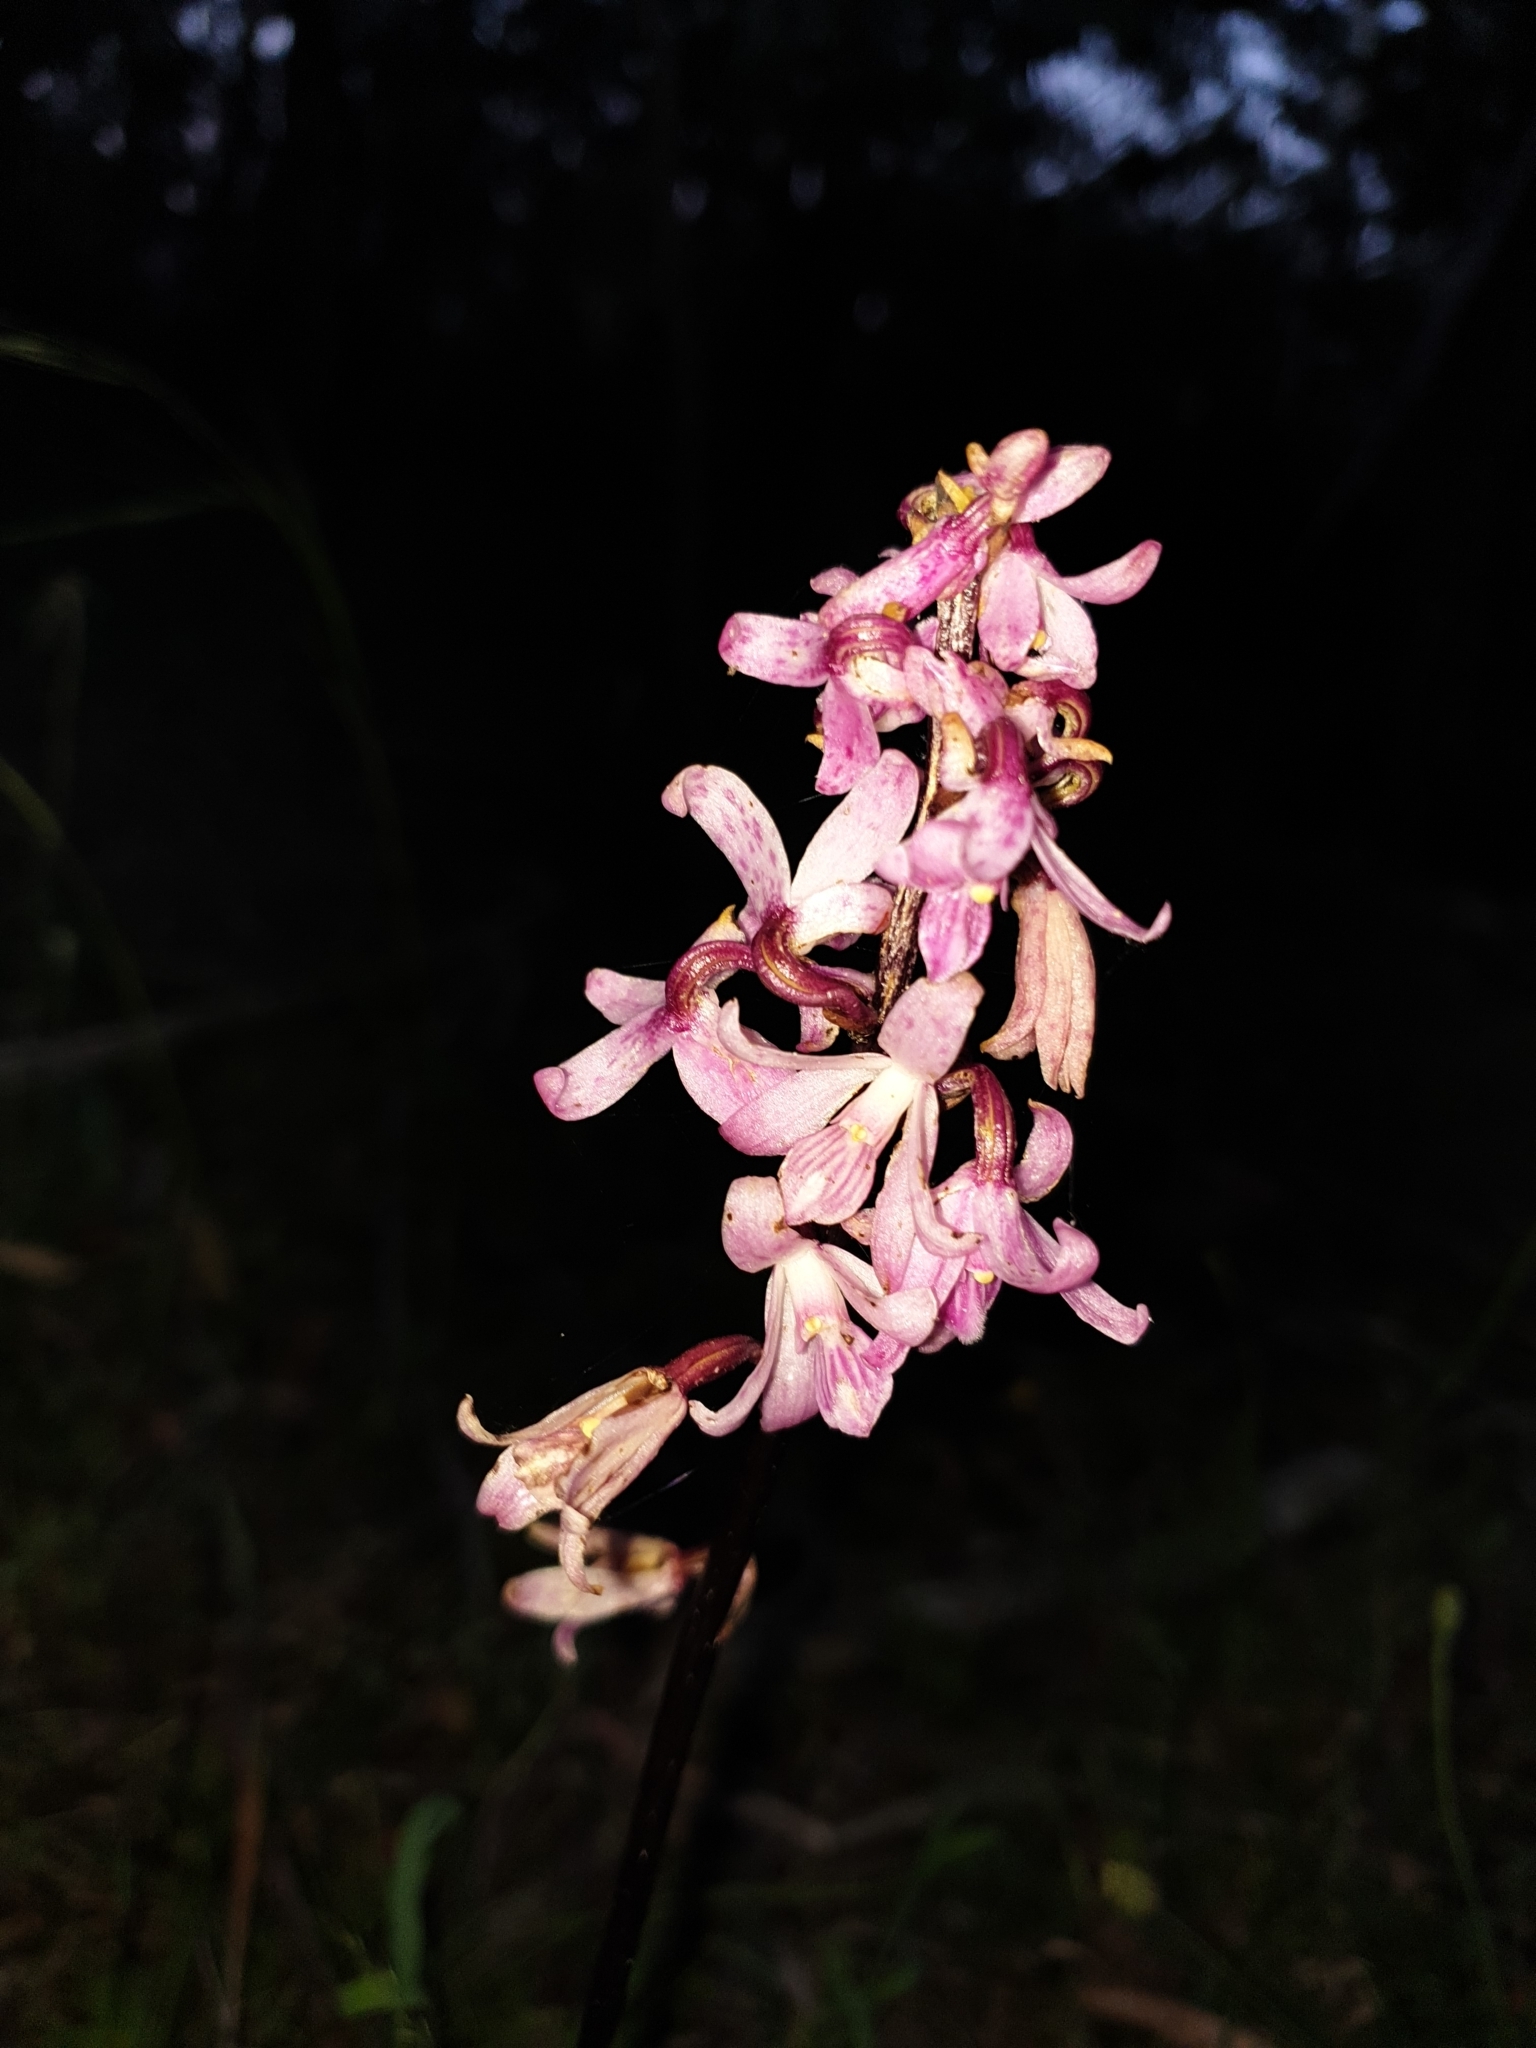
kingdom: Plantae
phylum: Tracheophyta
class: Liliopsida
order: Asparagales
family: Orchidaceae
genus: Dipodium
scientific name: Dipodium roseum
